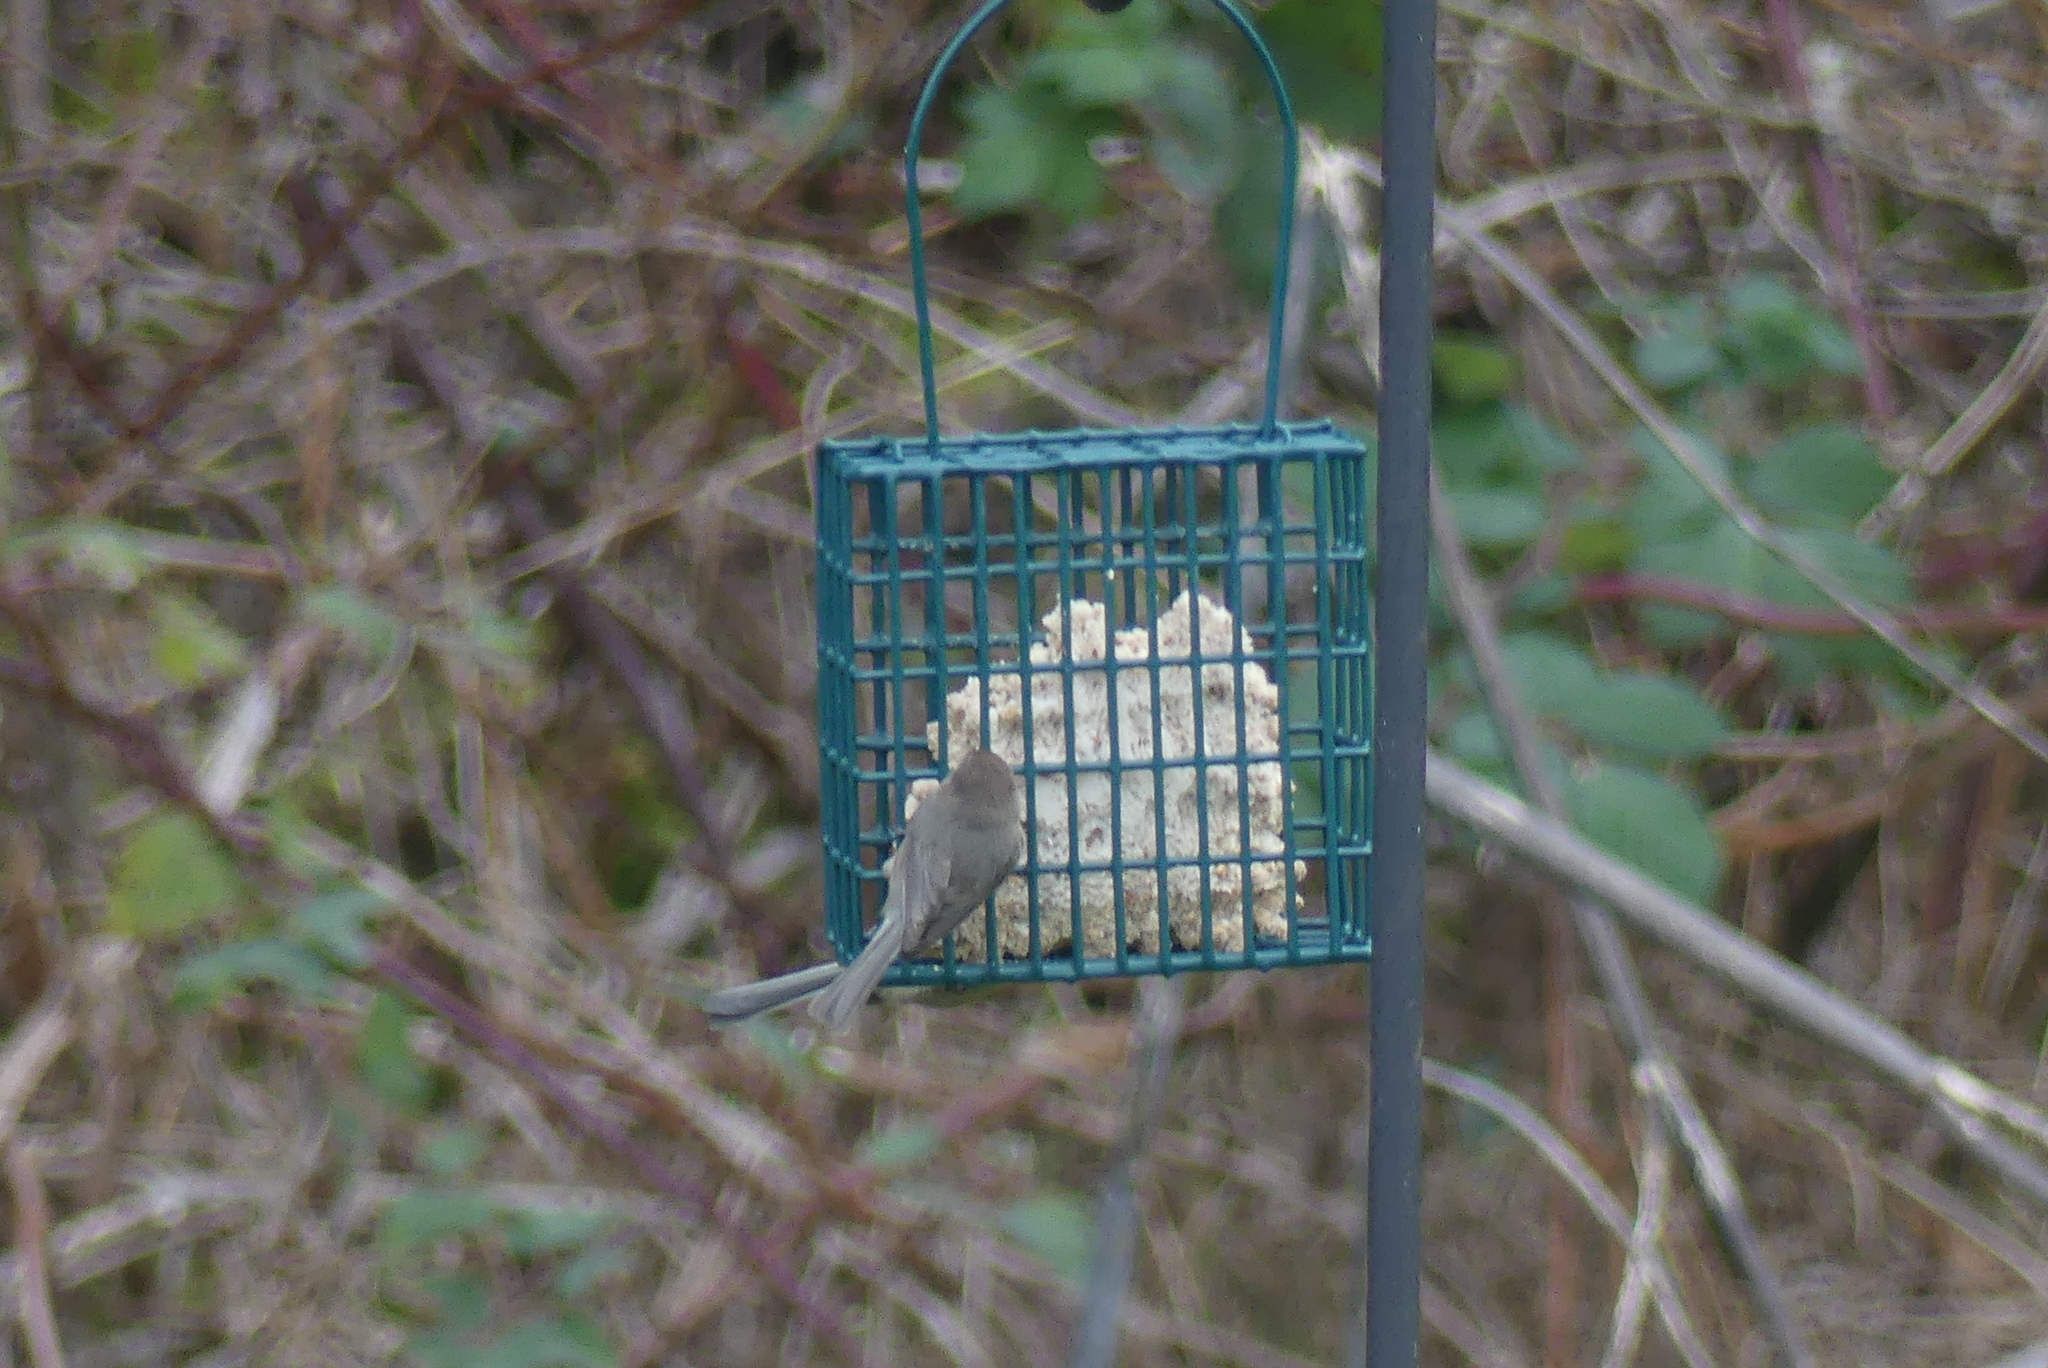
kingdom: Animalia
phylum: Chordata
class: Aves
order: Passeriformes
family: Aegithalidae
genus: Psaltriparus
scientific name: Psaltriparus minimus
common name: American bushtit
